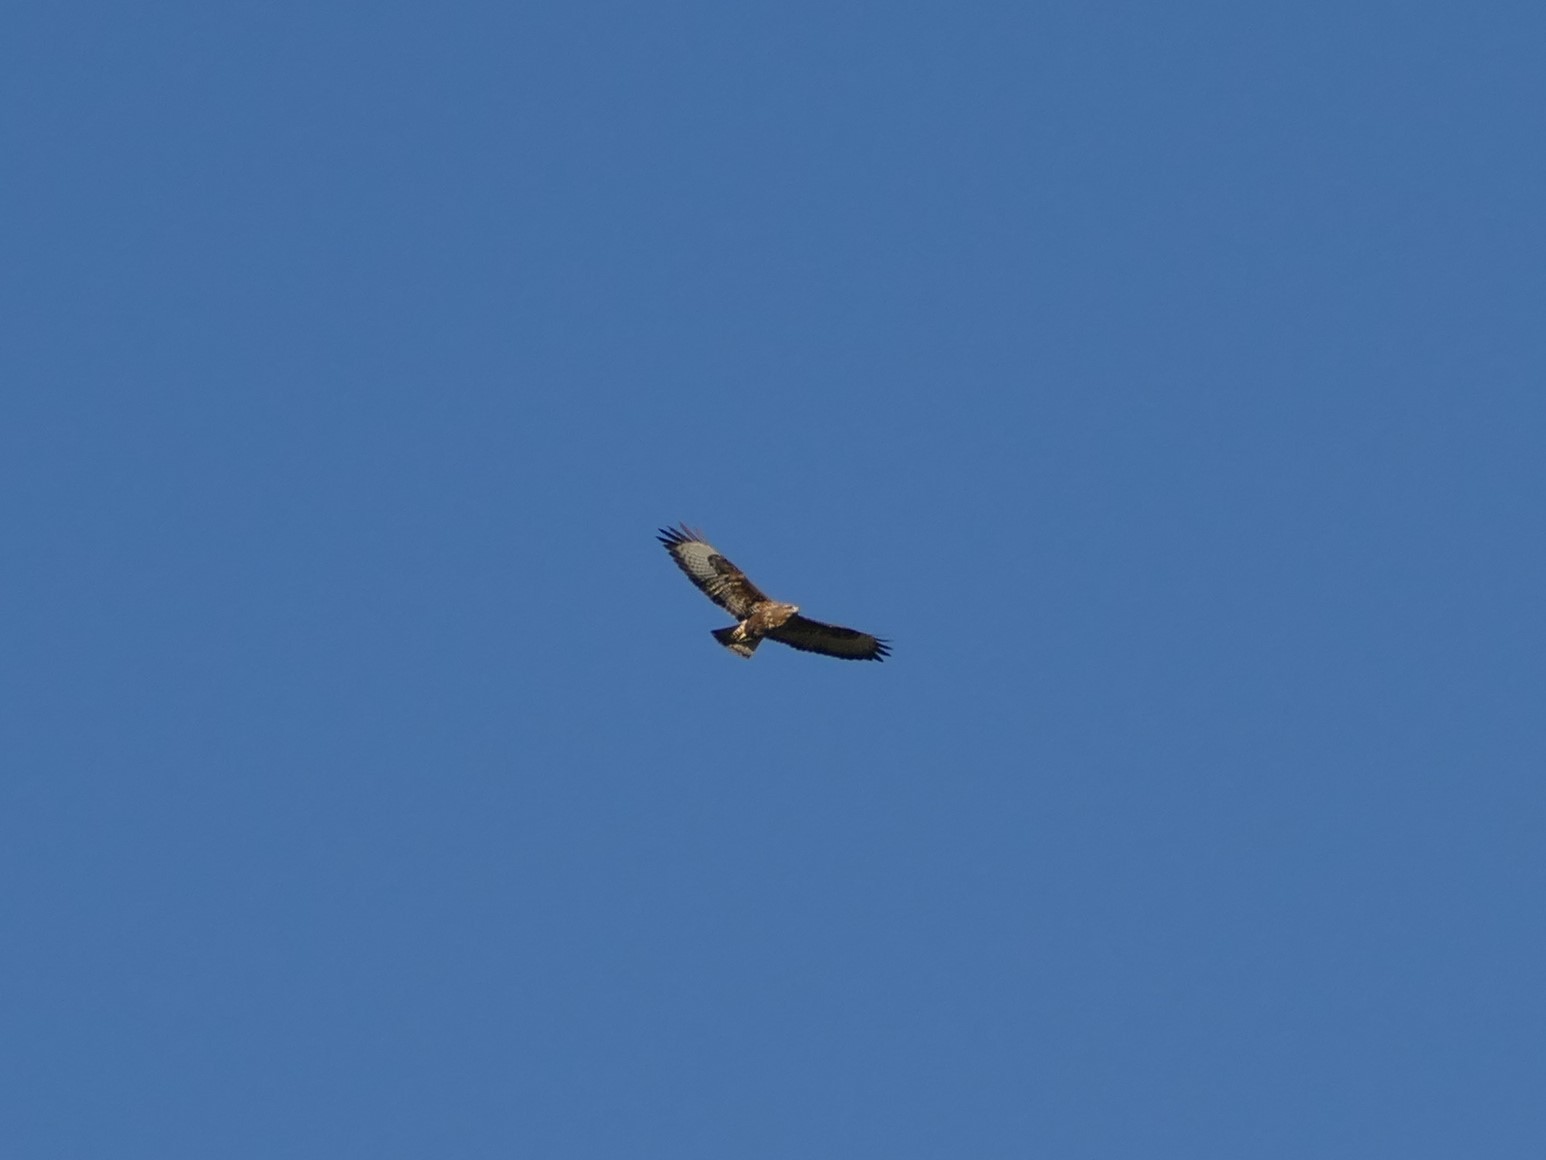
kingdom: Animalia
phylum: Chordata
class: Aves
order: Accipitriformes
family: Accipitridae
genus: Buteo
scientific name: Buteo buteo
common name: Common buzzard
